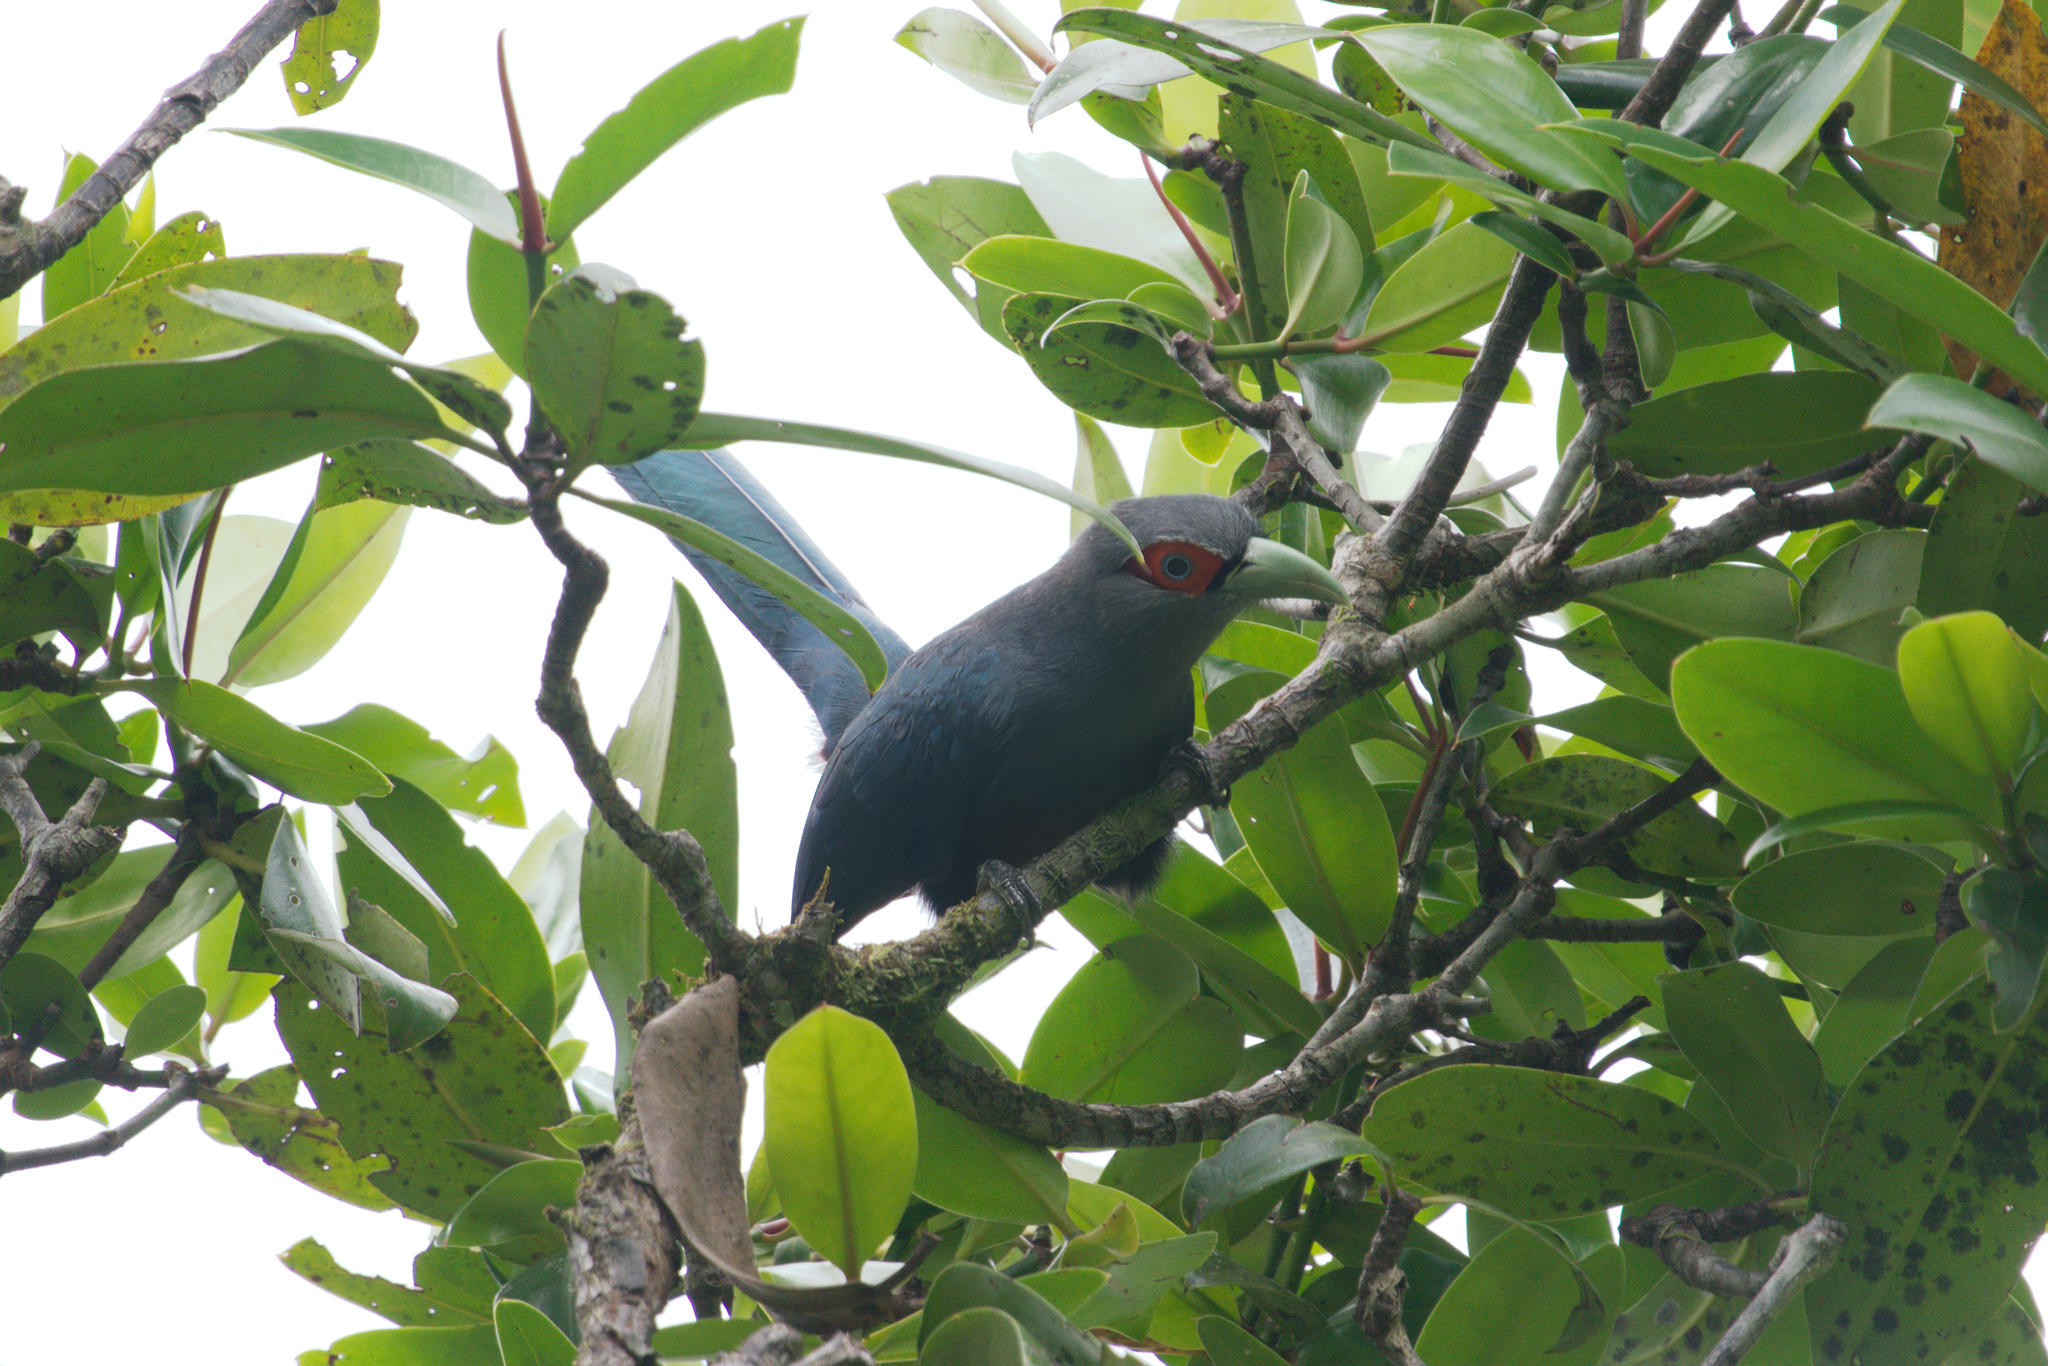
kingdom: Animalia
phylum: Chordata
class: Aves
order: Cuculiformes
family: Cuculidae
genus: Rhopodytes
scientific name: Rhopodytes sumatranus
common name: Rufous-bellied malcoha
